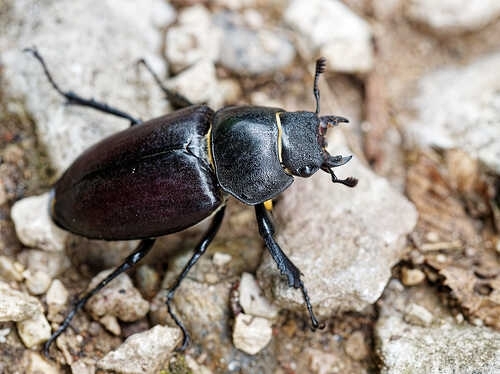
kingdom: Animalia
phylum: Arthropoda
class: Insecta
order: Coleoptera
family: Lucanidae
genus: Lucanus
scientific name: Lucanus cervus
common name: Stag beetle
